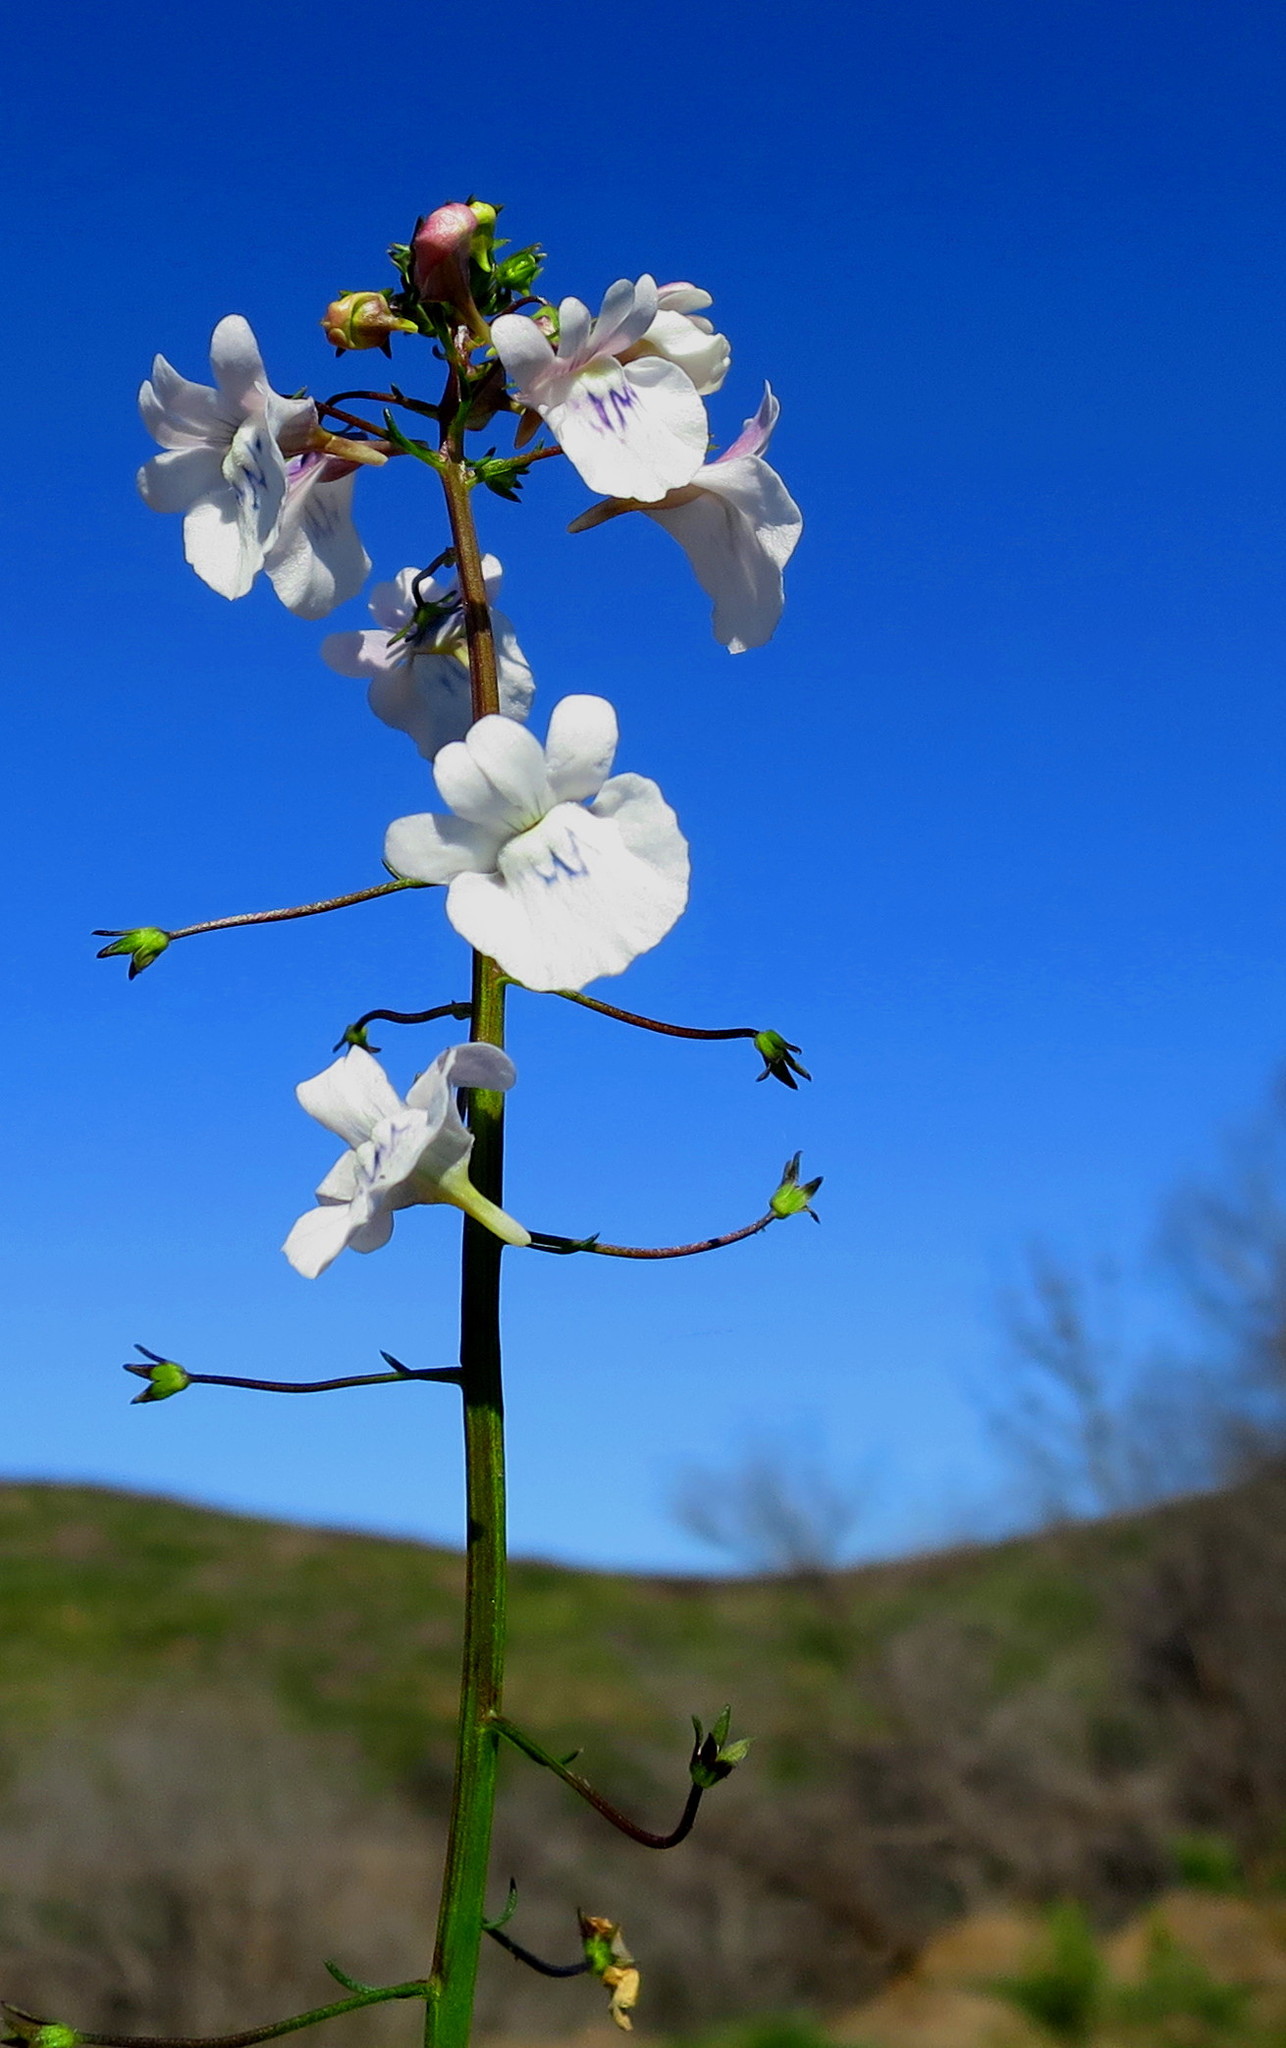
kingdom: Plantae
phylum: Tracheophyta
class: Magnoliopsida
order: Lamiales
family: Scrophulariaceae
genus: Nemesia
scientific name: Nemesia elata
